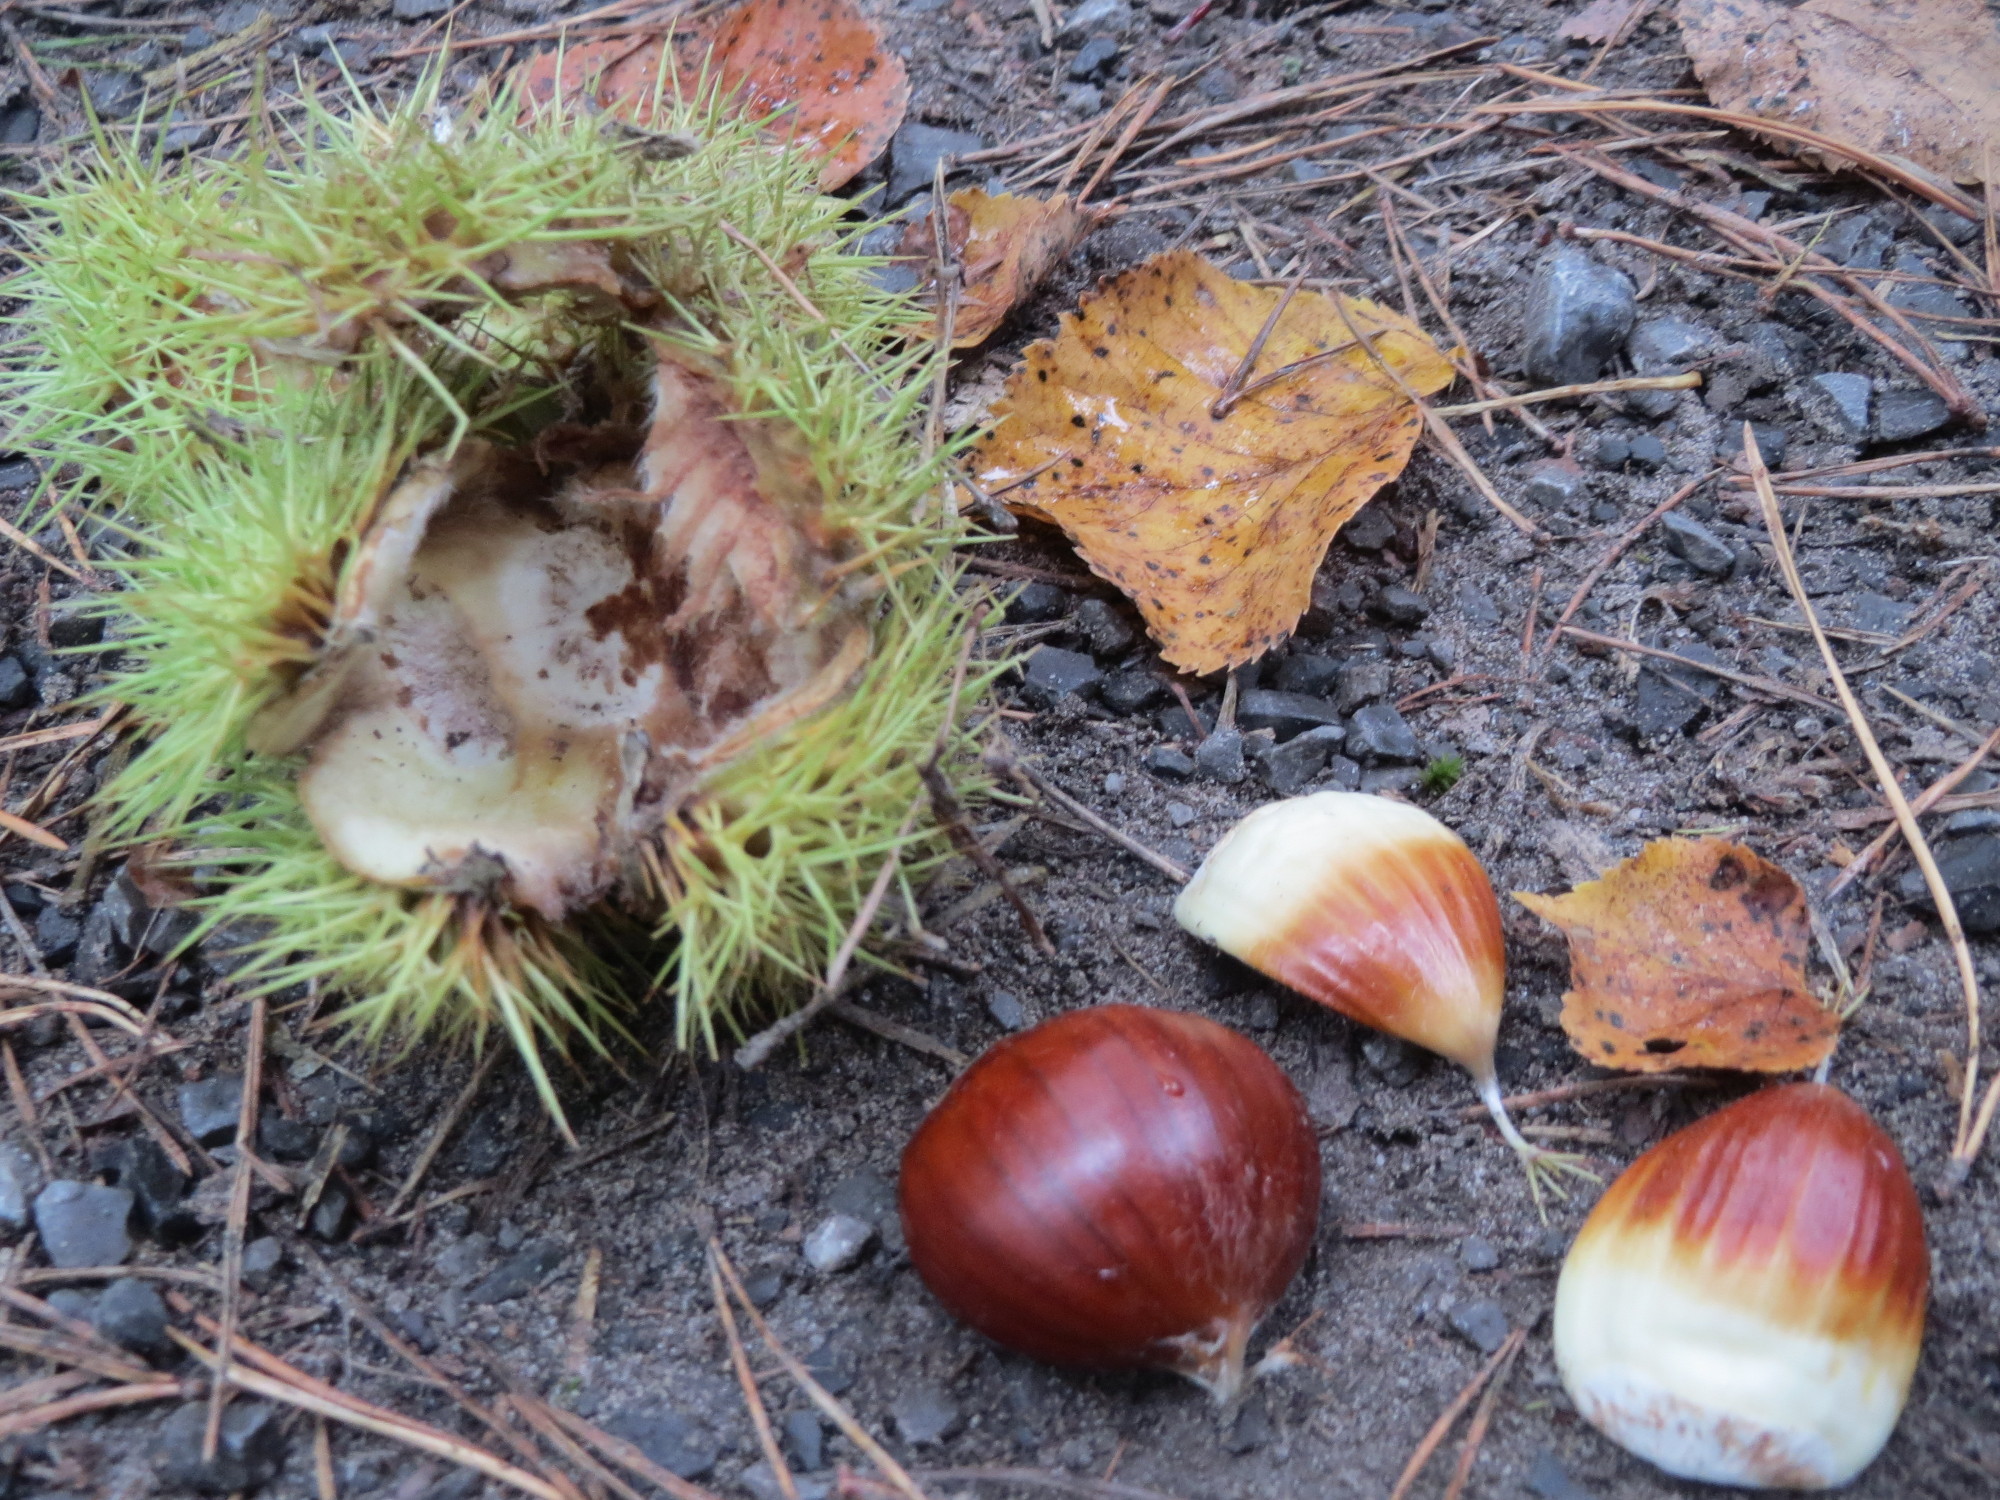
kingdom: Plantae
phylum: Tracheophyta
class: Magnoliopsida
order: Fagales
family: Fagaceae
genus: Castanea
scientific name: Castanea sativa
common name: Sweet chestnut
